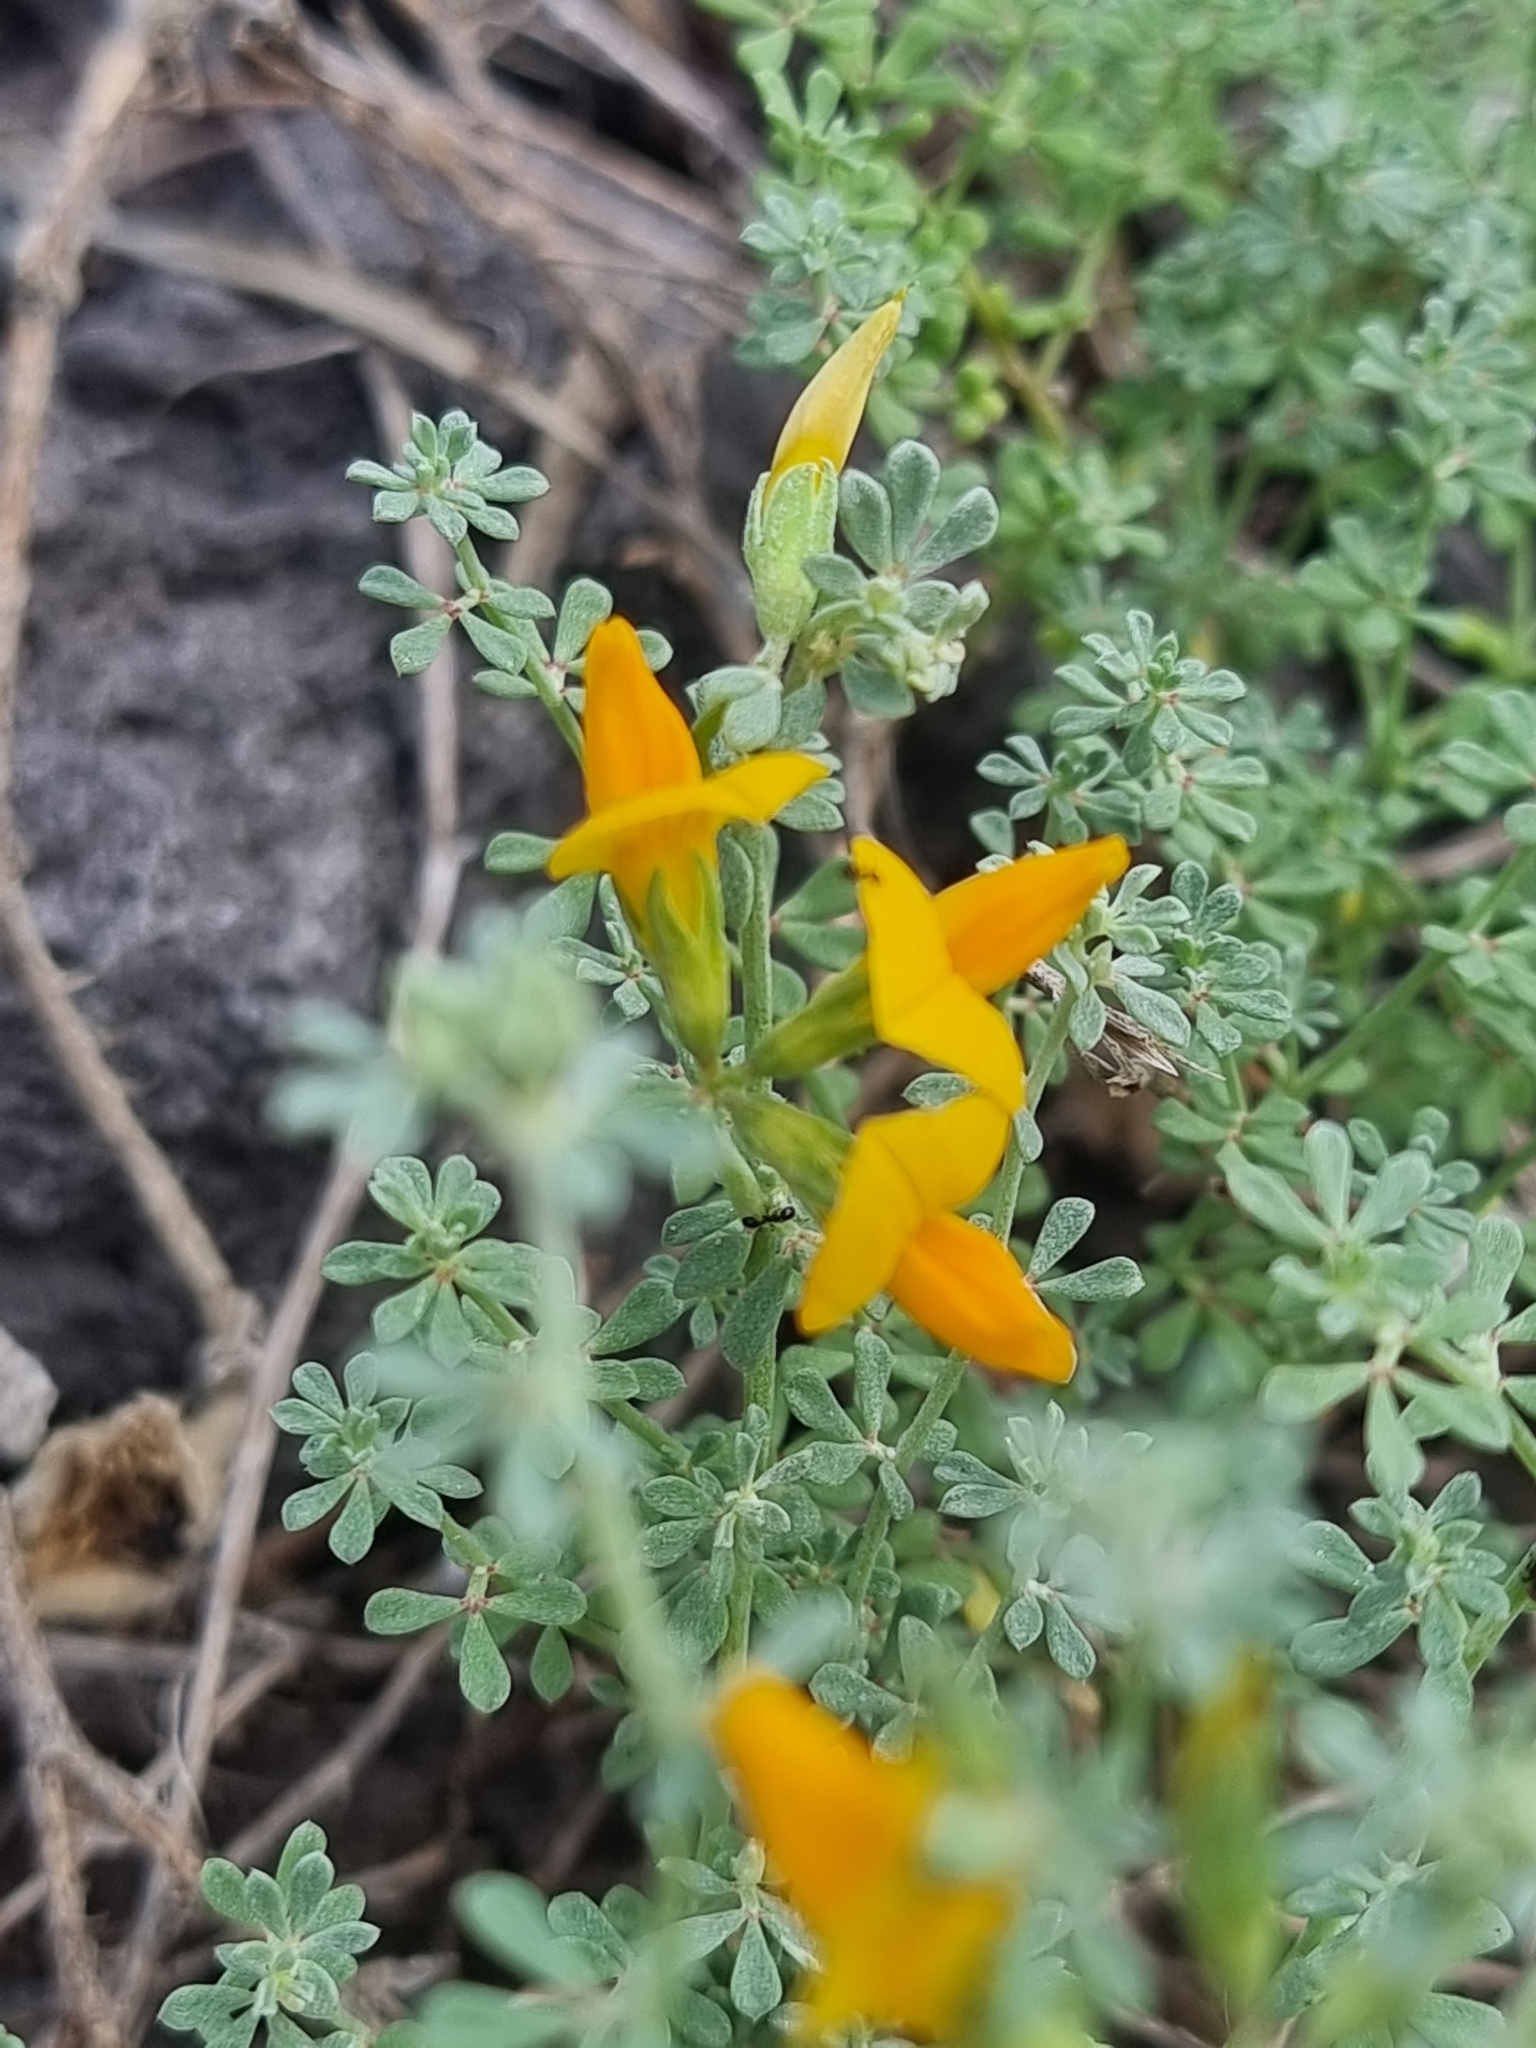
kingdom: Plantae
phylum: Tracheophyta
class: Magnoliopsida
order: Fabales
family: Fabaceae
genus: Lotus
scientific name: Lotus glaucus
